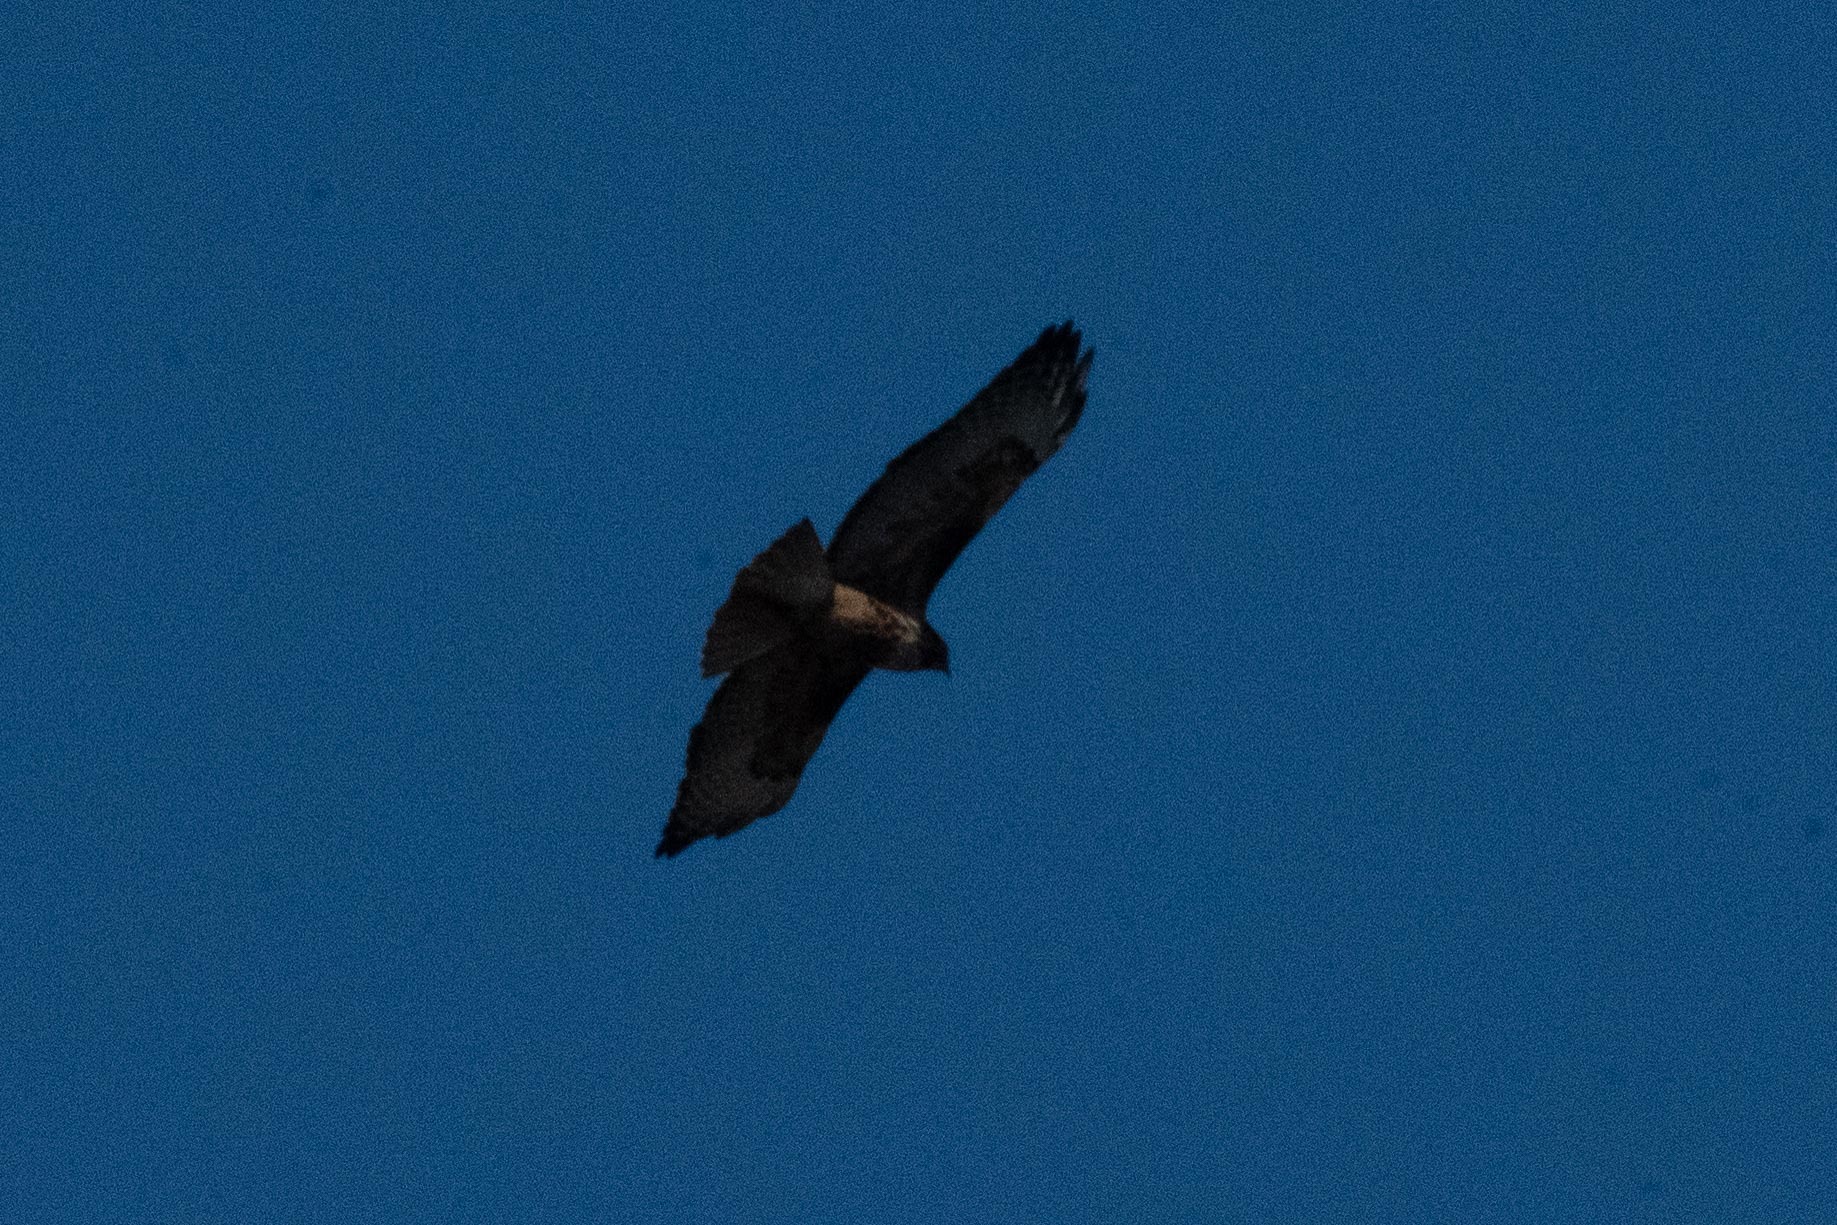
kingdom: Animalia
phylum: Chordata
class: Aves
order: Accipitriformes
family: Accipitridae
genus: Buteo
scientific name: Buteo jamaicensis
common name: Red-tailed hawk
